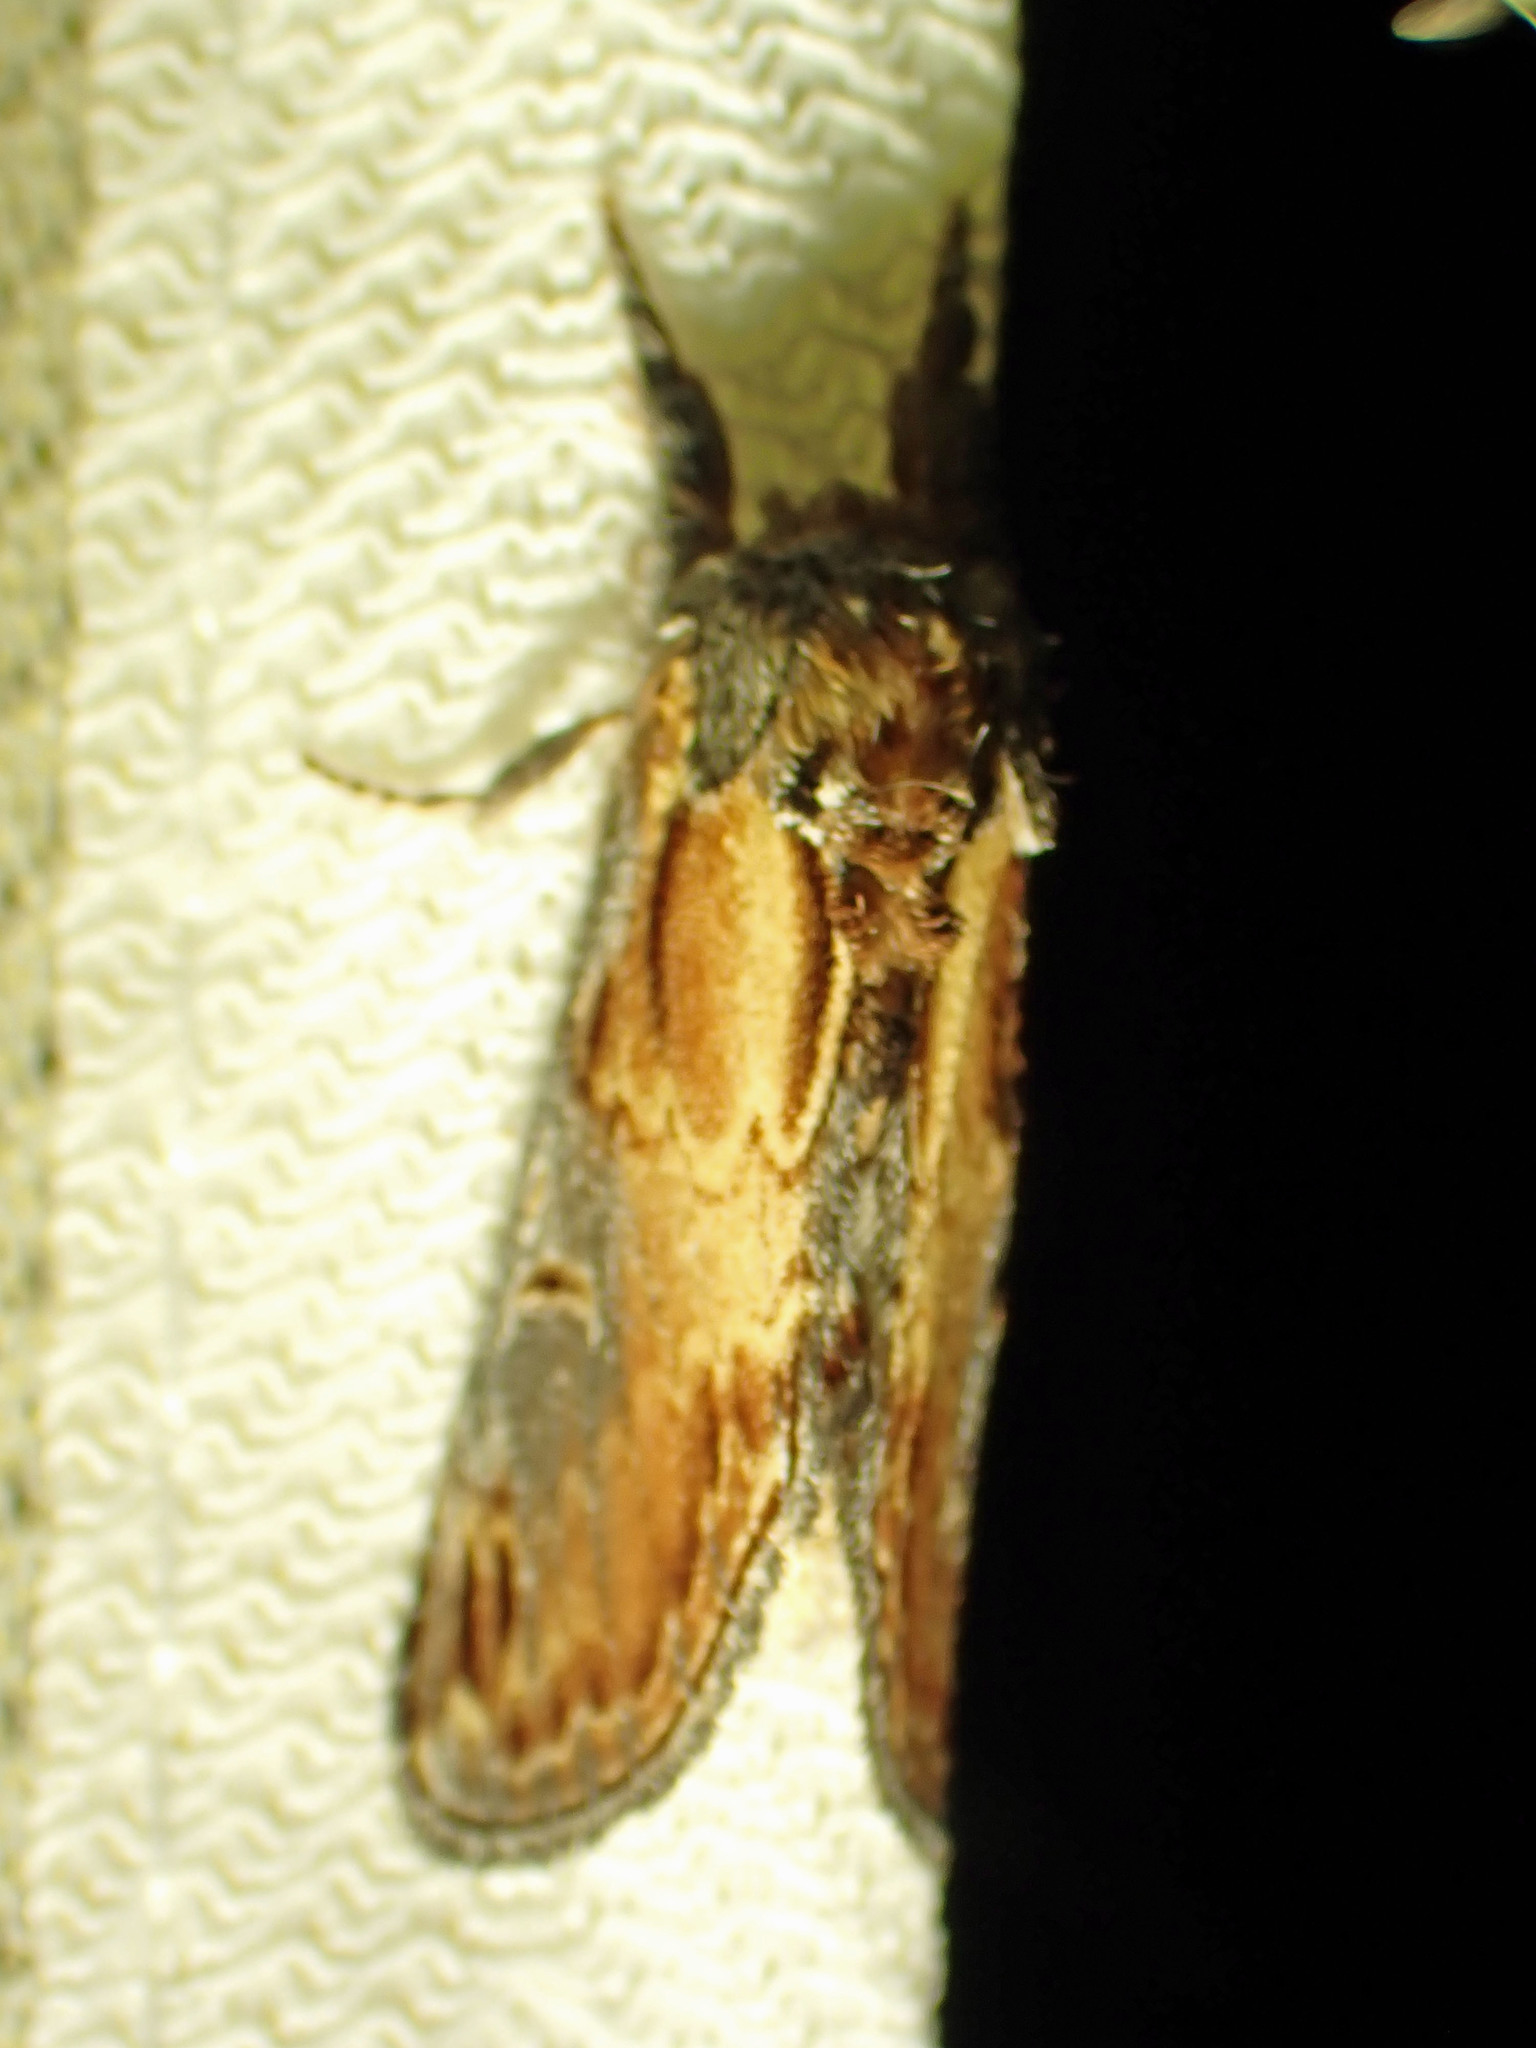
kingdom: Animalia
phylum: Arthropoda
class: Insecta
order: Lepidoptera
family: Notodontidae
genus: Notodonta
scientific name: Notodonta scitipennis
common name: Finned-willow prominent moth
